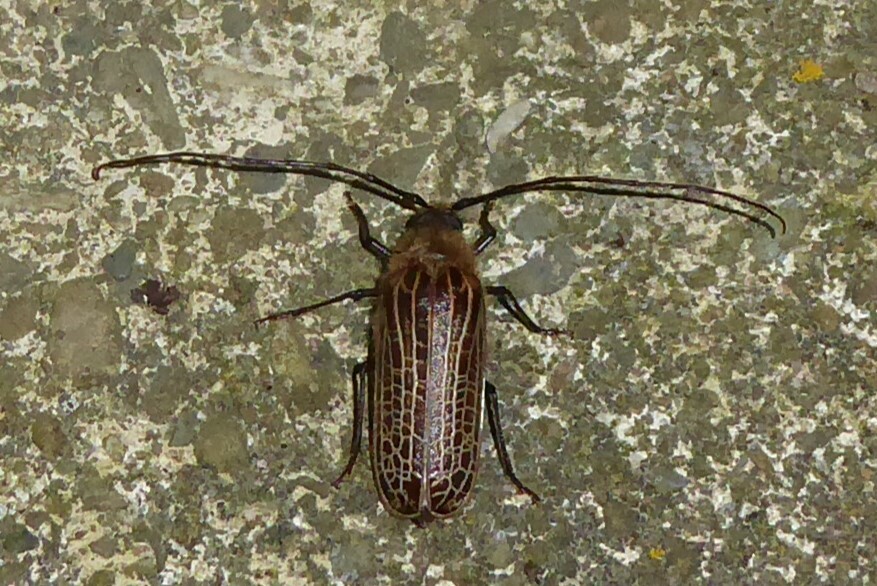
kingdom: Animalia
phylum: Arthropoda
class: Insecta
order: Coleoptera
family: Cerambycidae
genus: Prionoplus
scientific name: Prionoplus reticularis
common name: Huhu beetle
